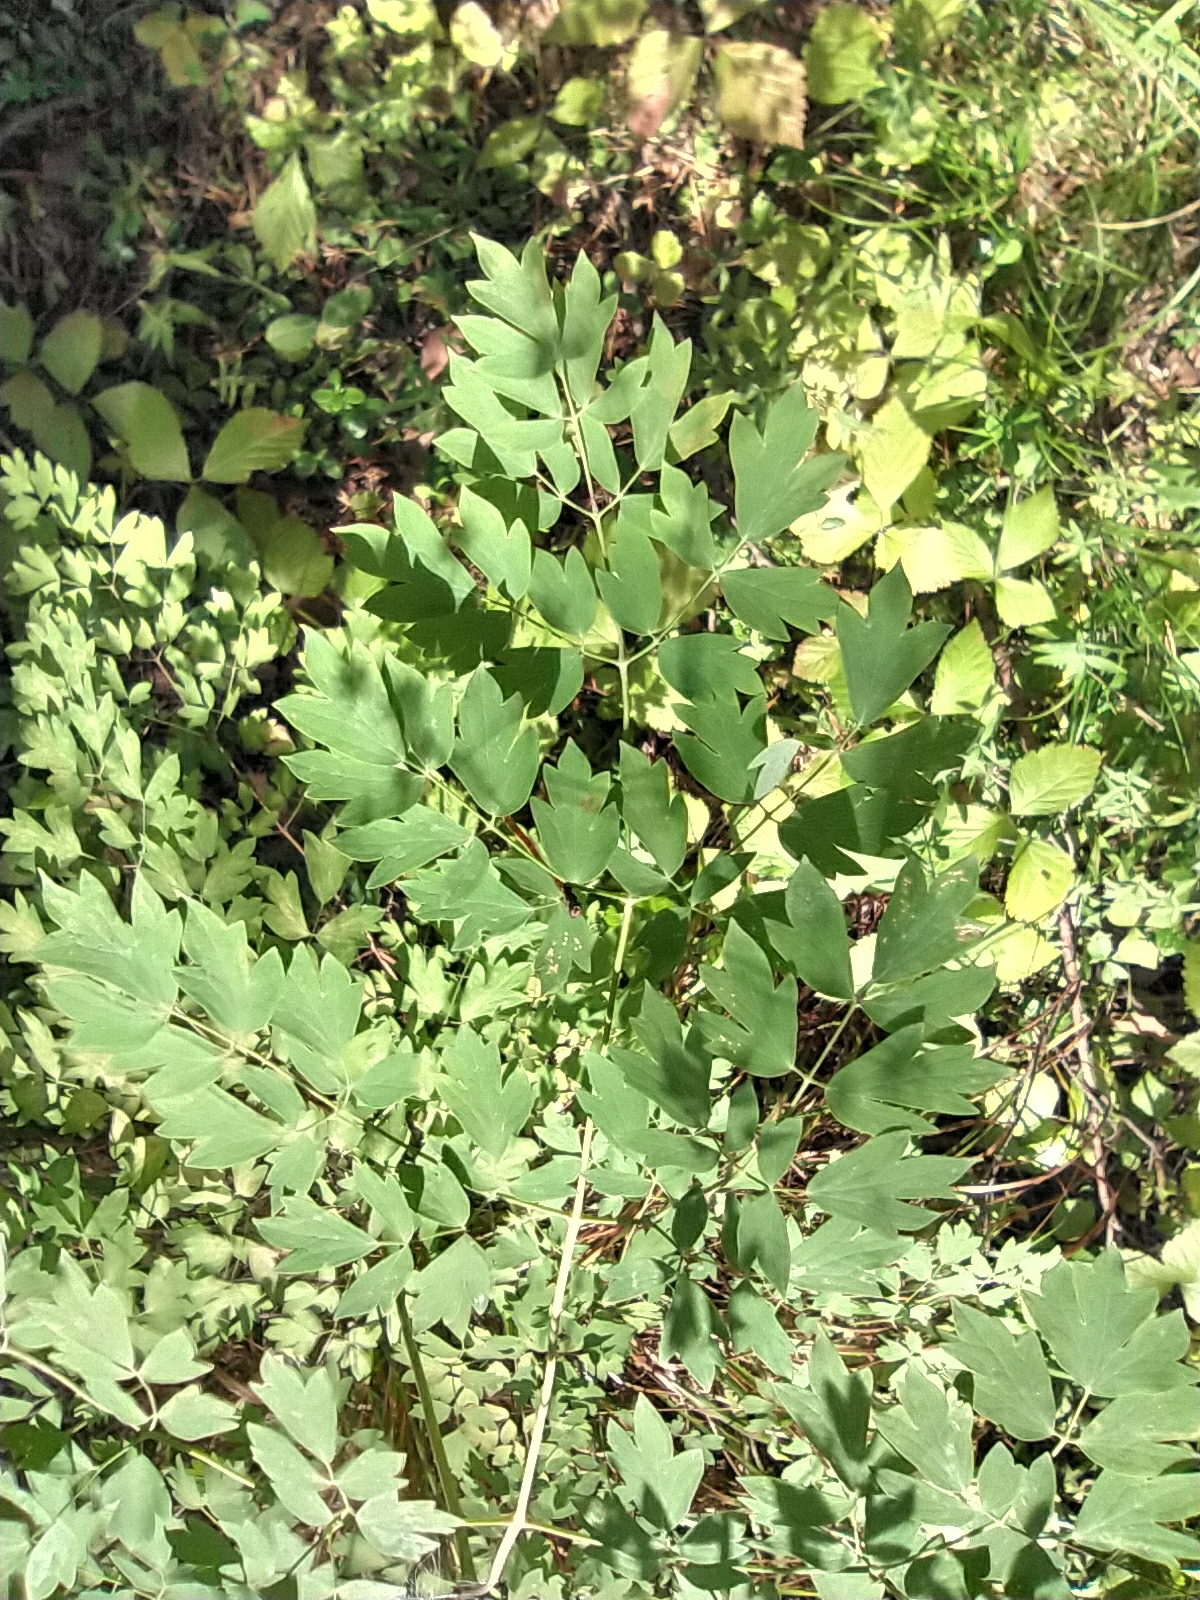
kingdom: Plantae
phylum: Tracheophyta
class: Magnoliopsida
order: Ranunculales
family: Ranunculaceae
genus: Thalictrum
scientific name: Thalictrum minus
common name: Lesser meadow-rue
